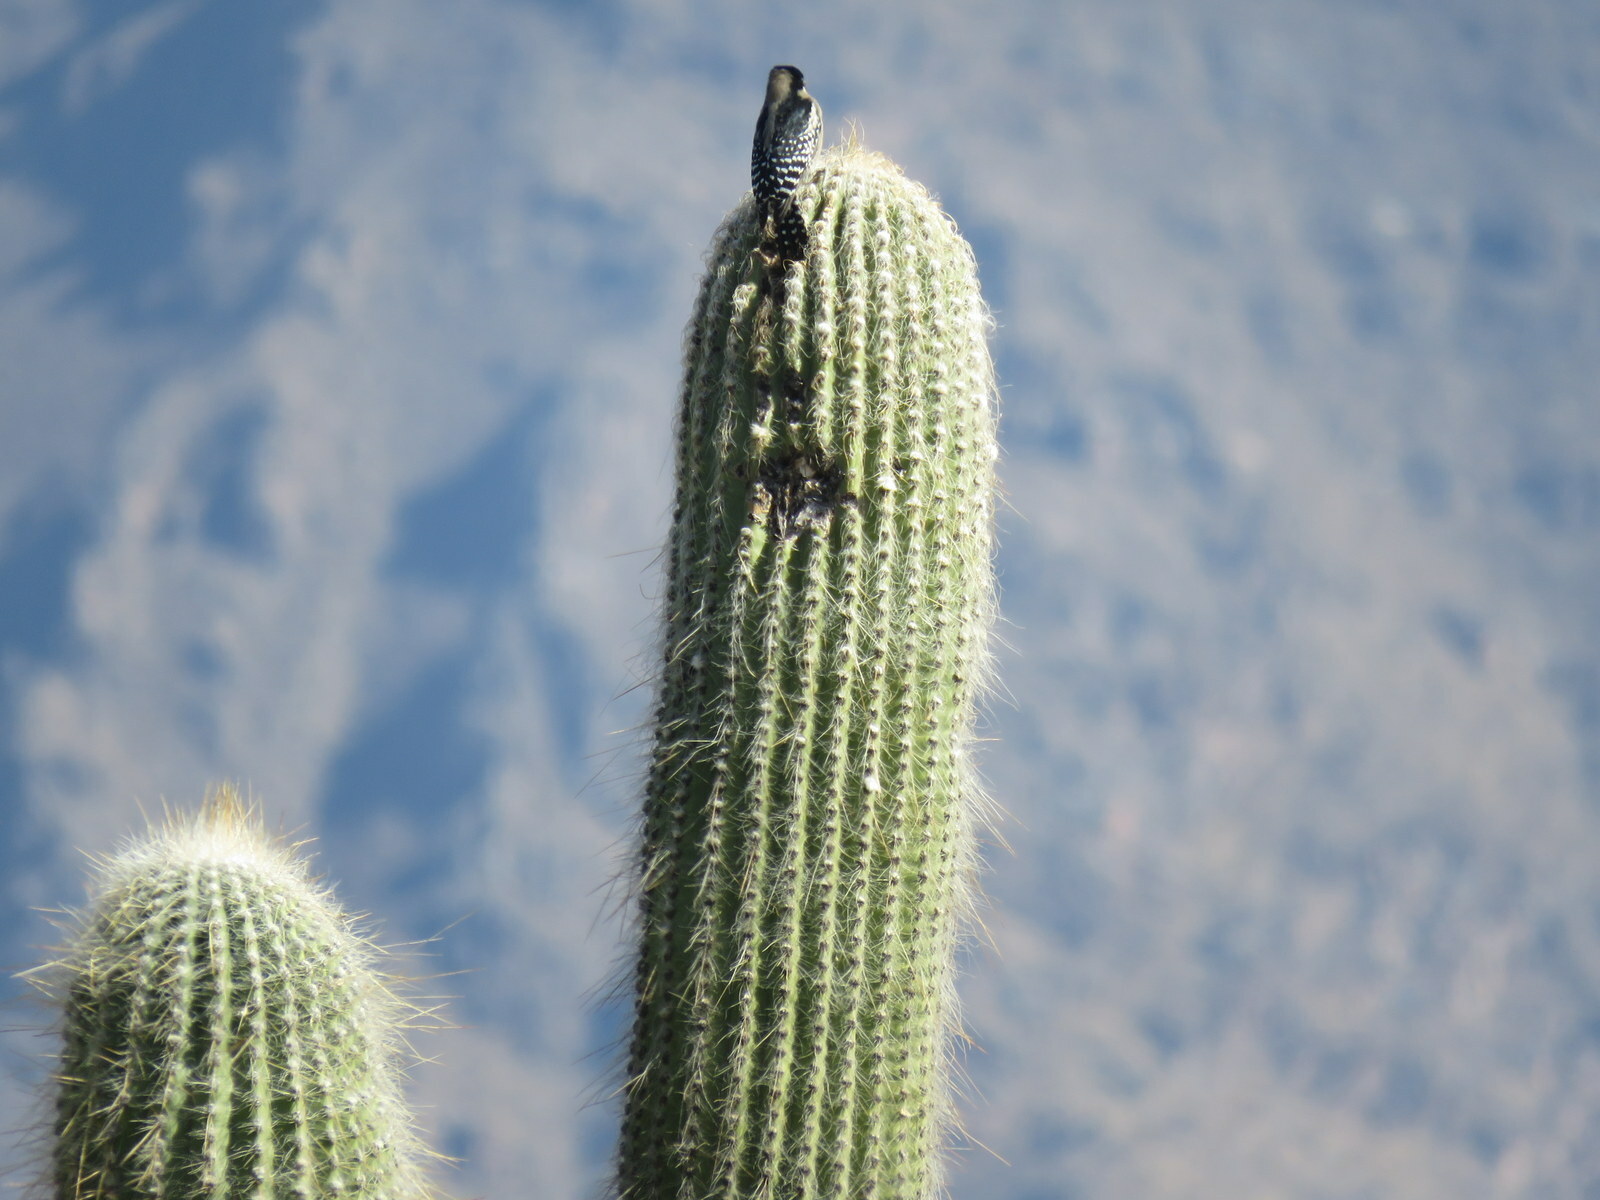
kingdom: Animalia
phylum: Chordata
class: Aves
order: Piciformes
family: Picidae
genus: Melanerpes
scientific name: Melanerpes cactorum
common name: White-fronted woodpecker
